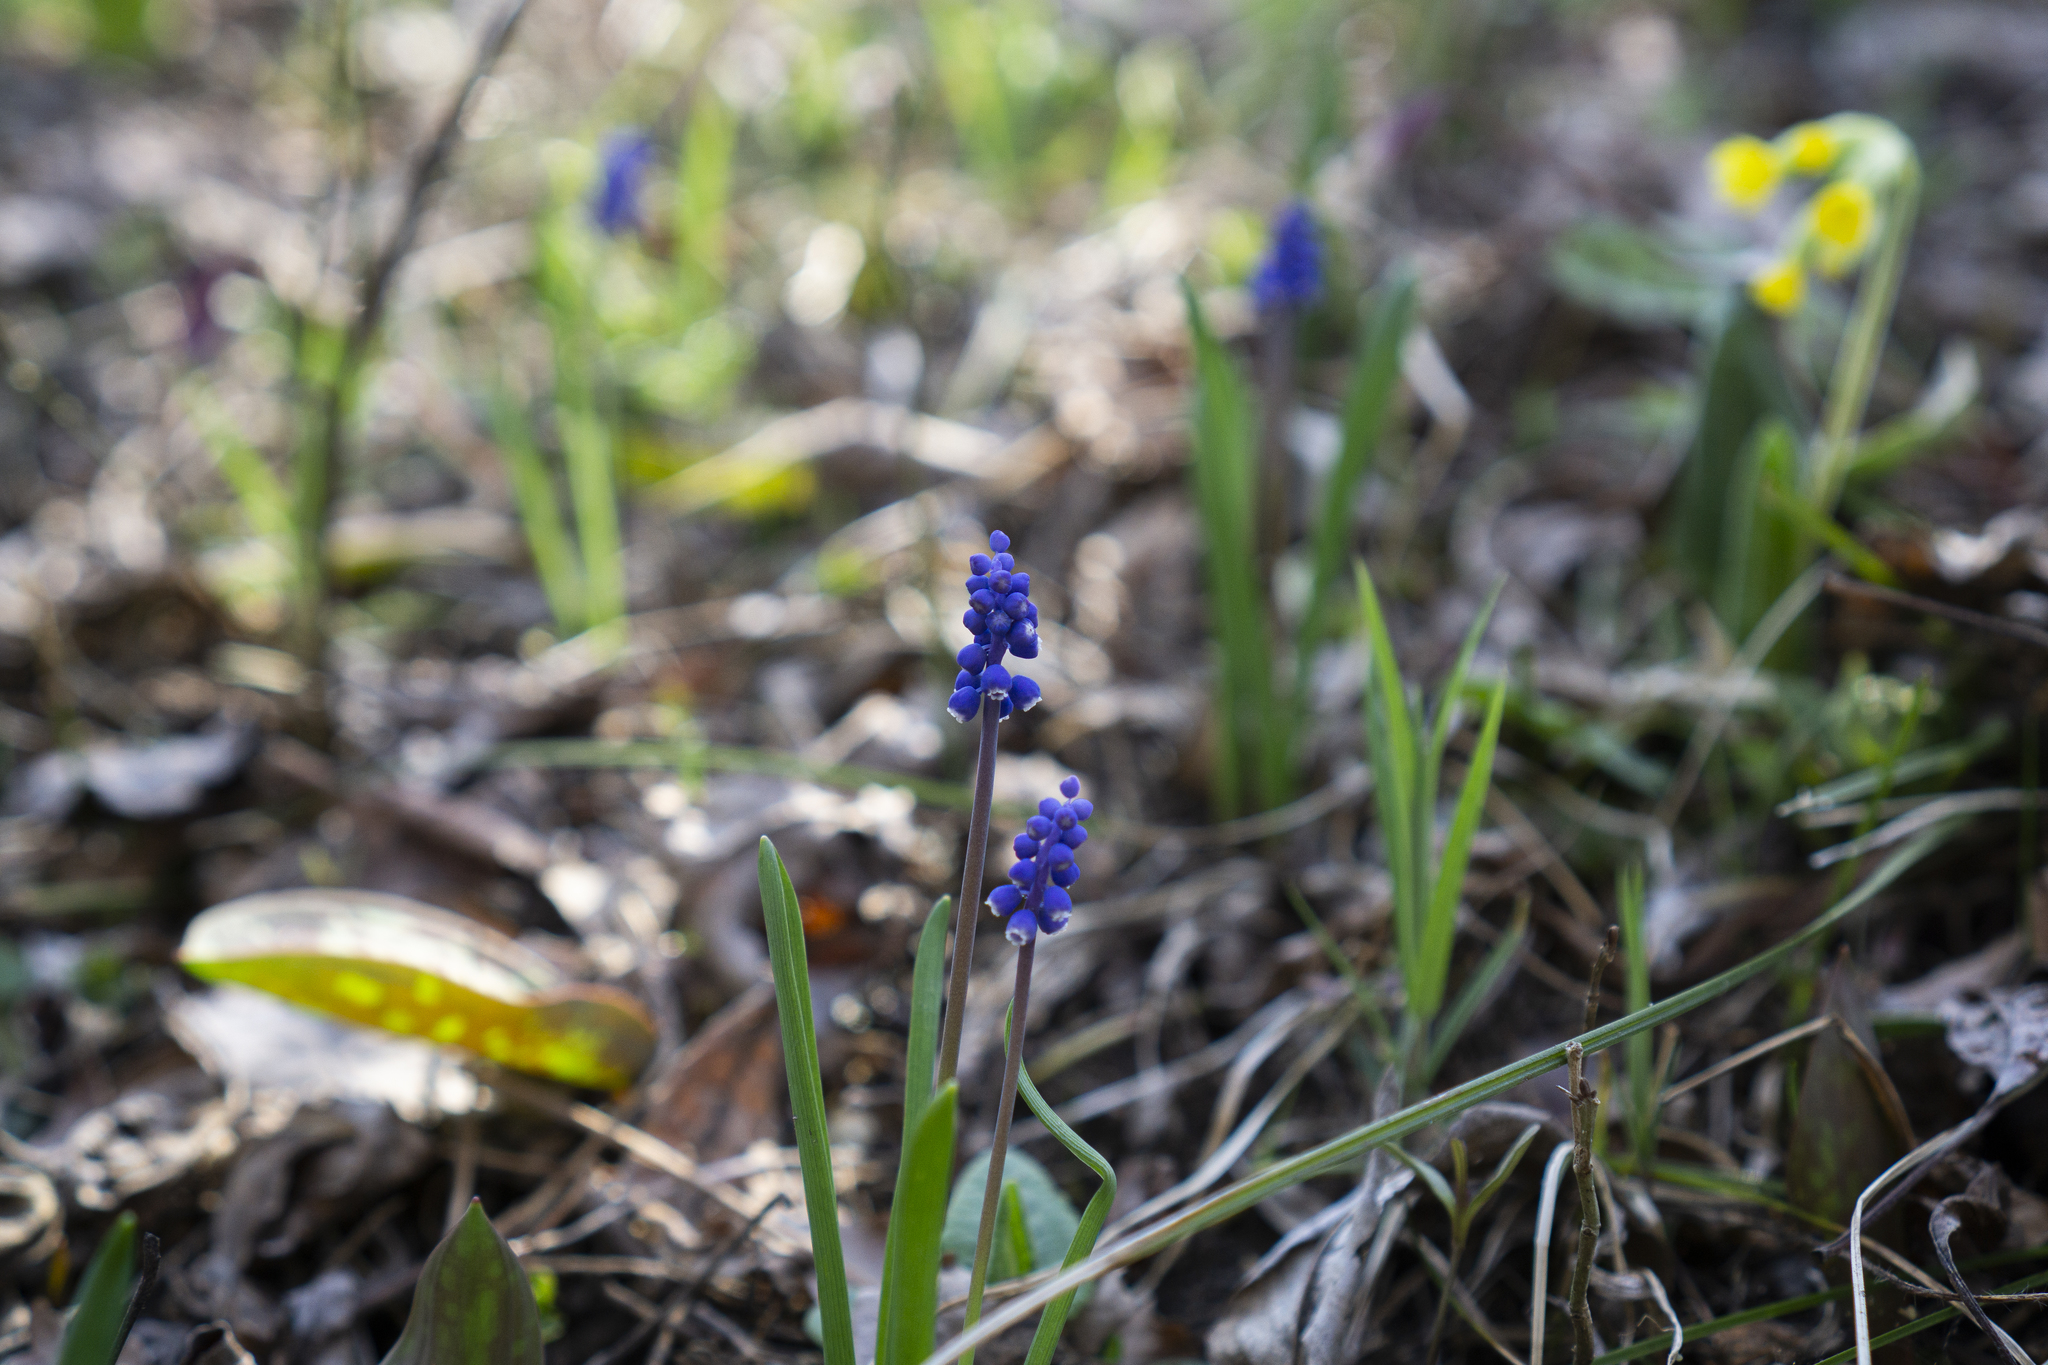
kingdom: Plantae
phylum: Tracheophyta
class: Liliopsida
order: Asparagales
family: Asparagaceae
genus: Muscari
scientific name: Muscari botryoides
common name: Compact grape-hyacinth
